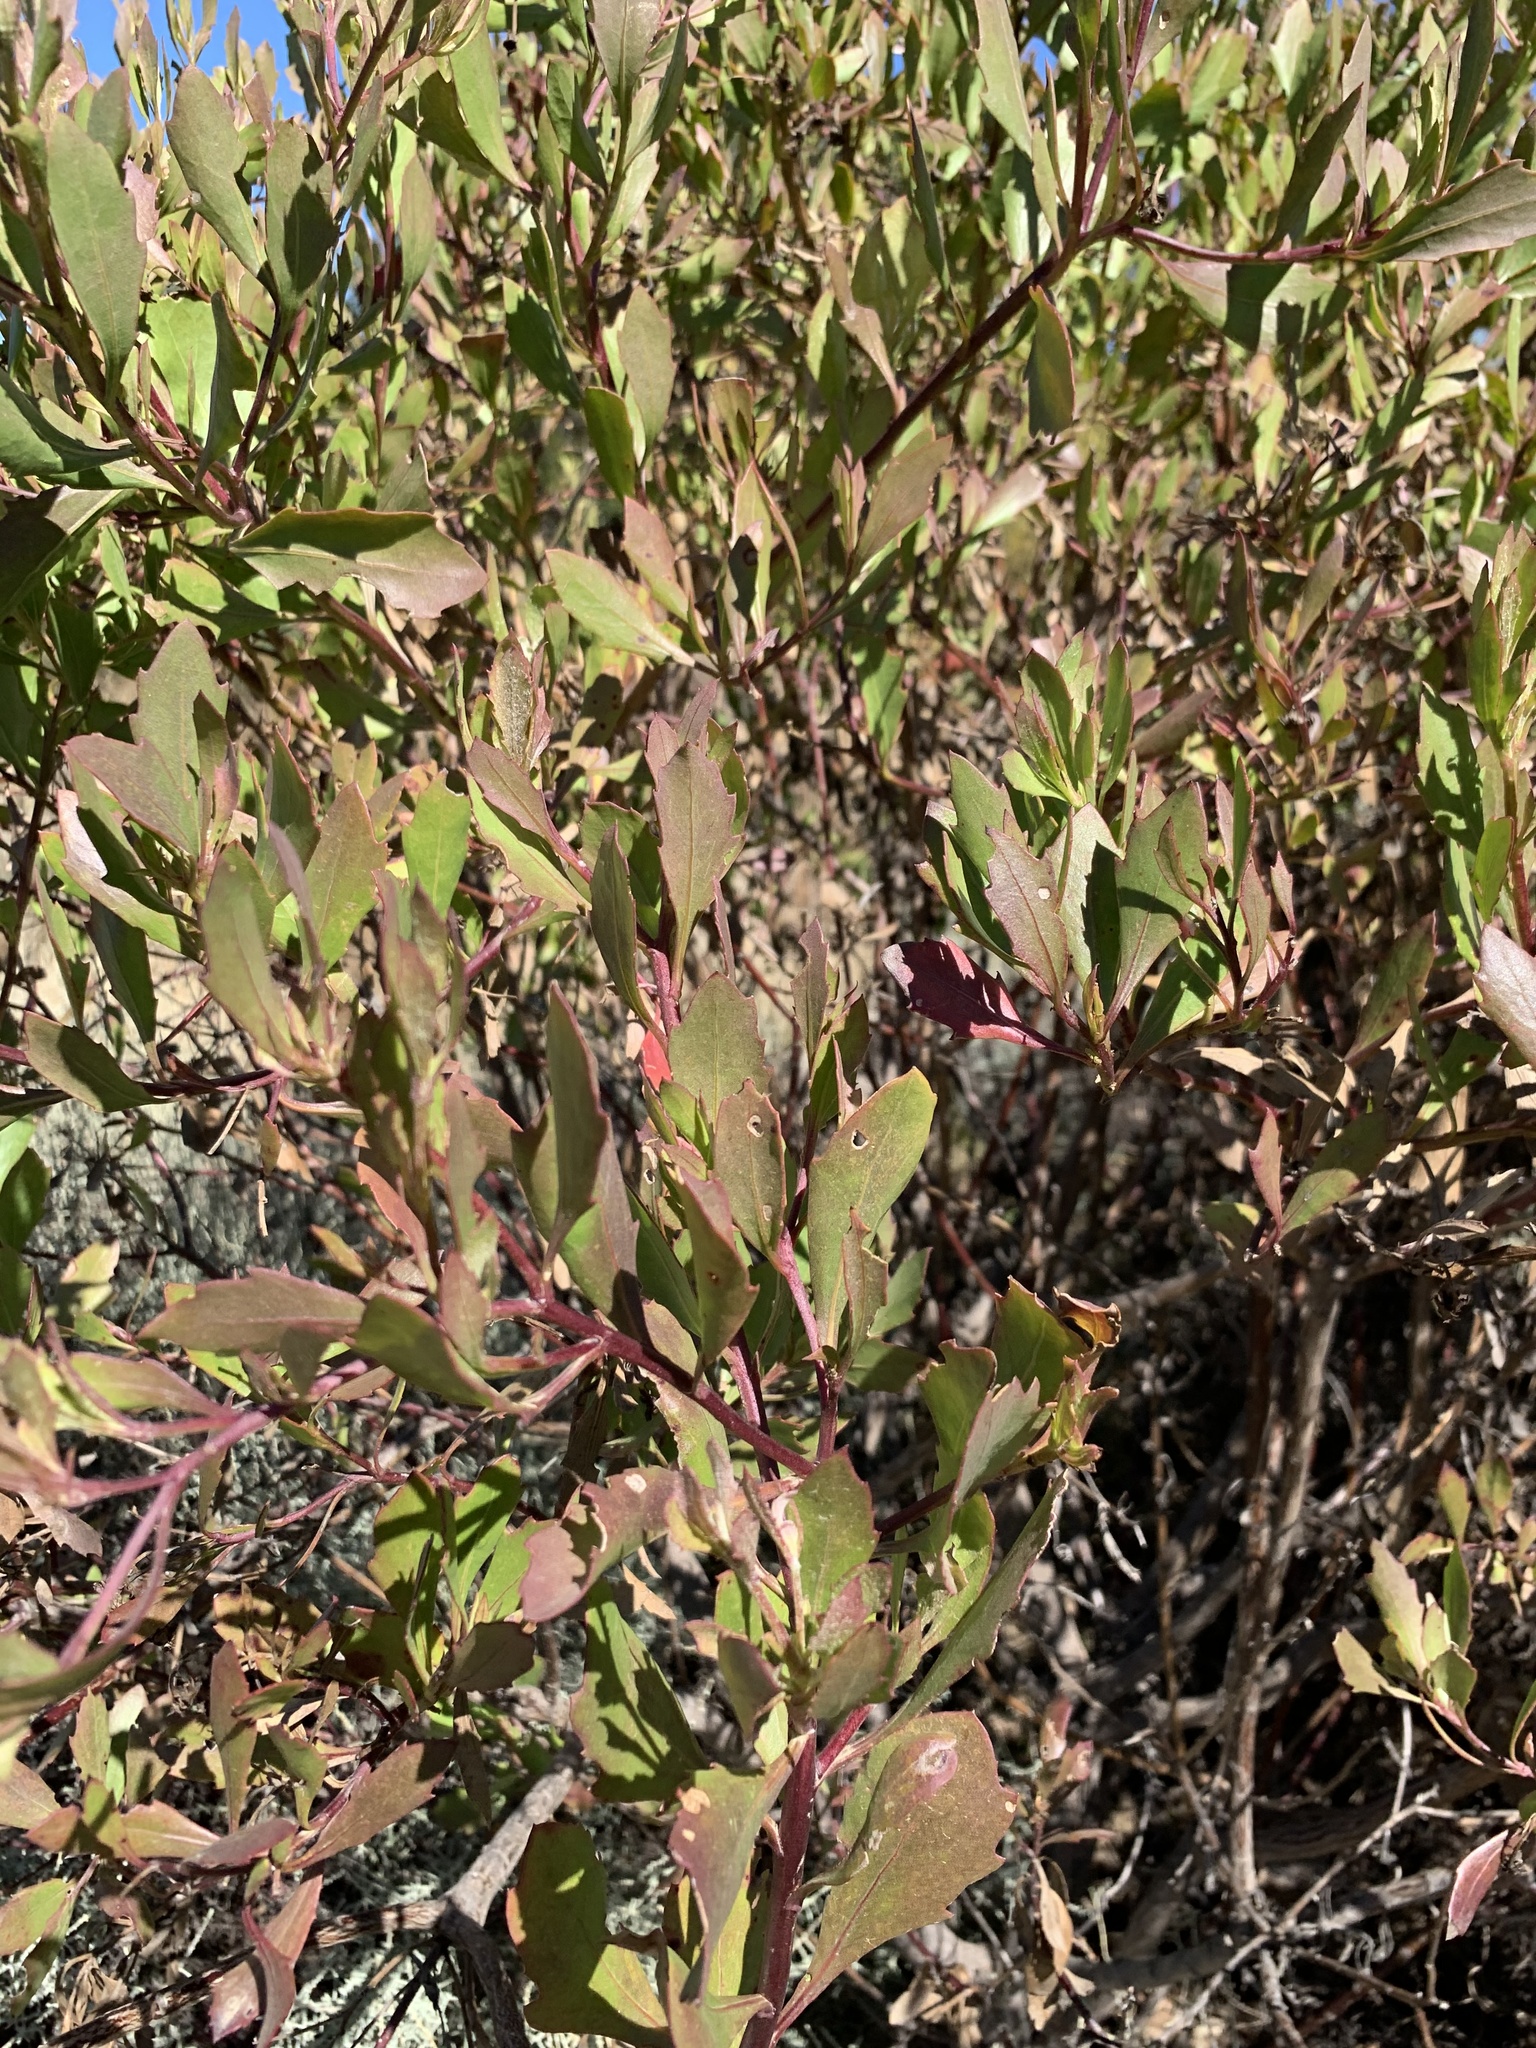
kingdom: Plantae
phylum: Tracheophyta
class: Magnoliopsida
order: Asterales
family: Asteraceae
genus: Osteospermum
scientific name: Osteospermum moniliferum
